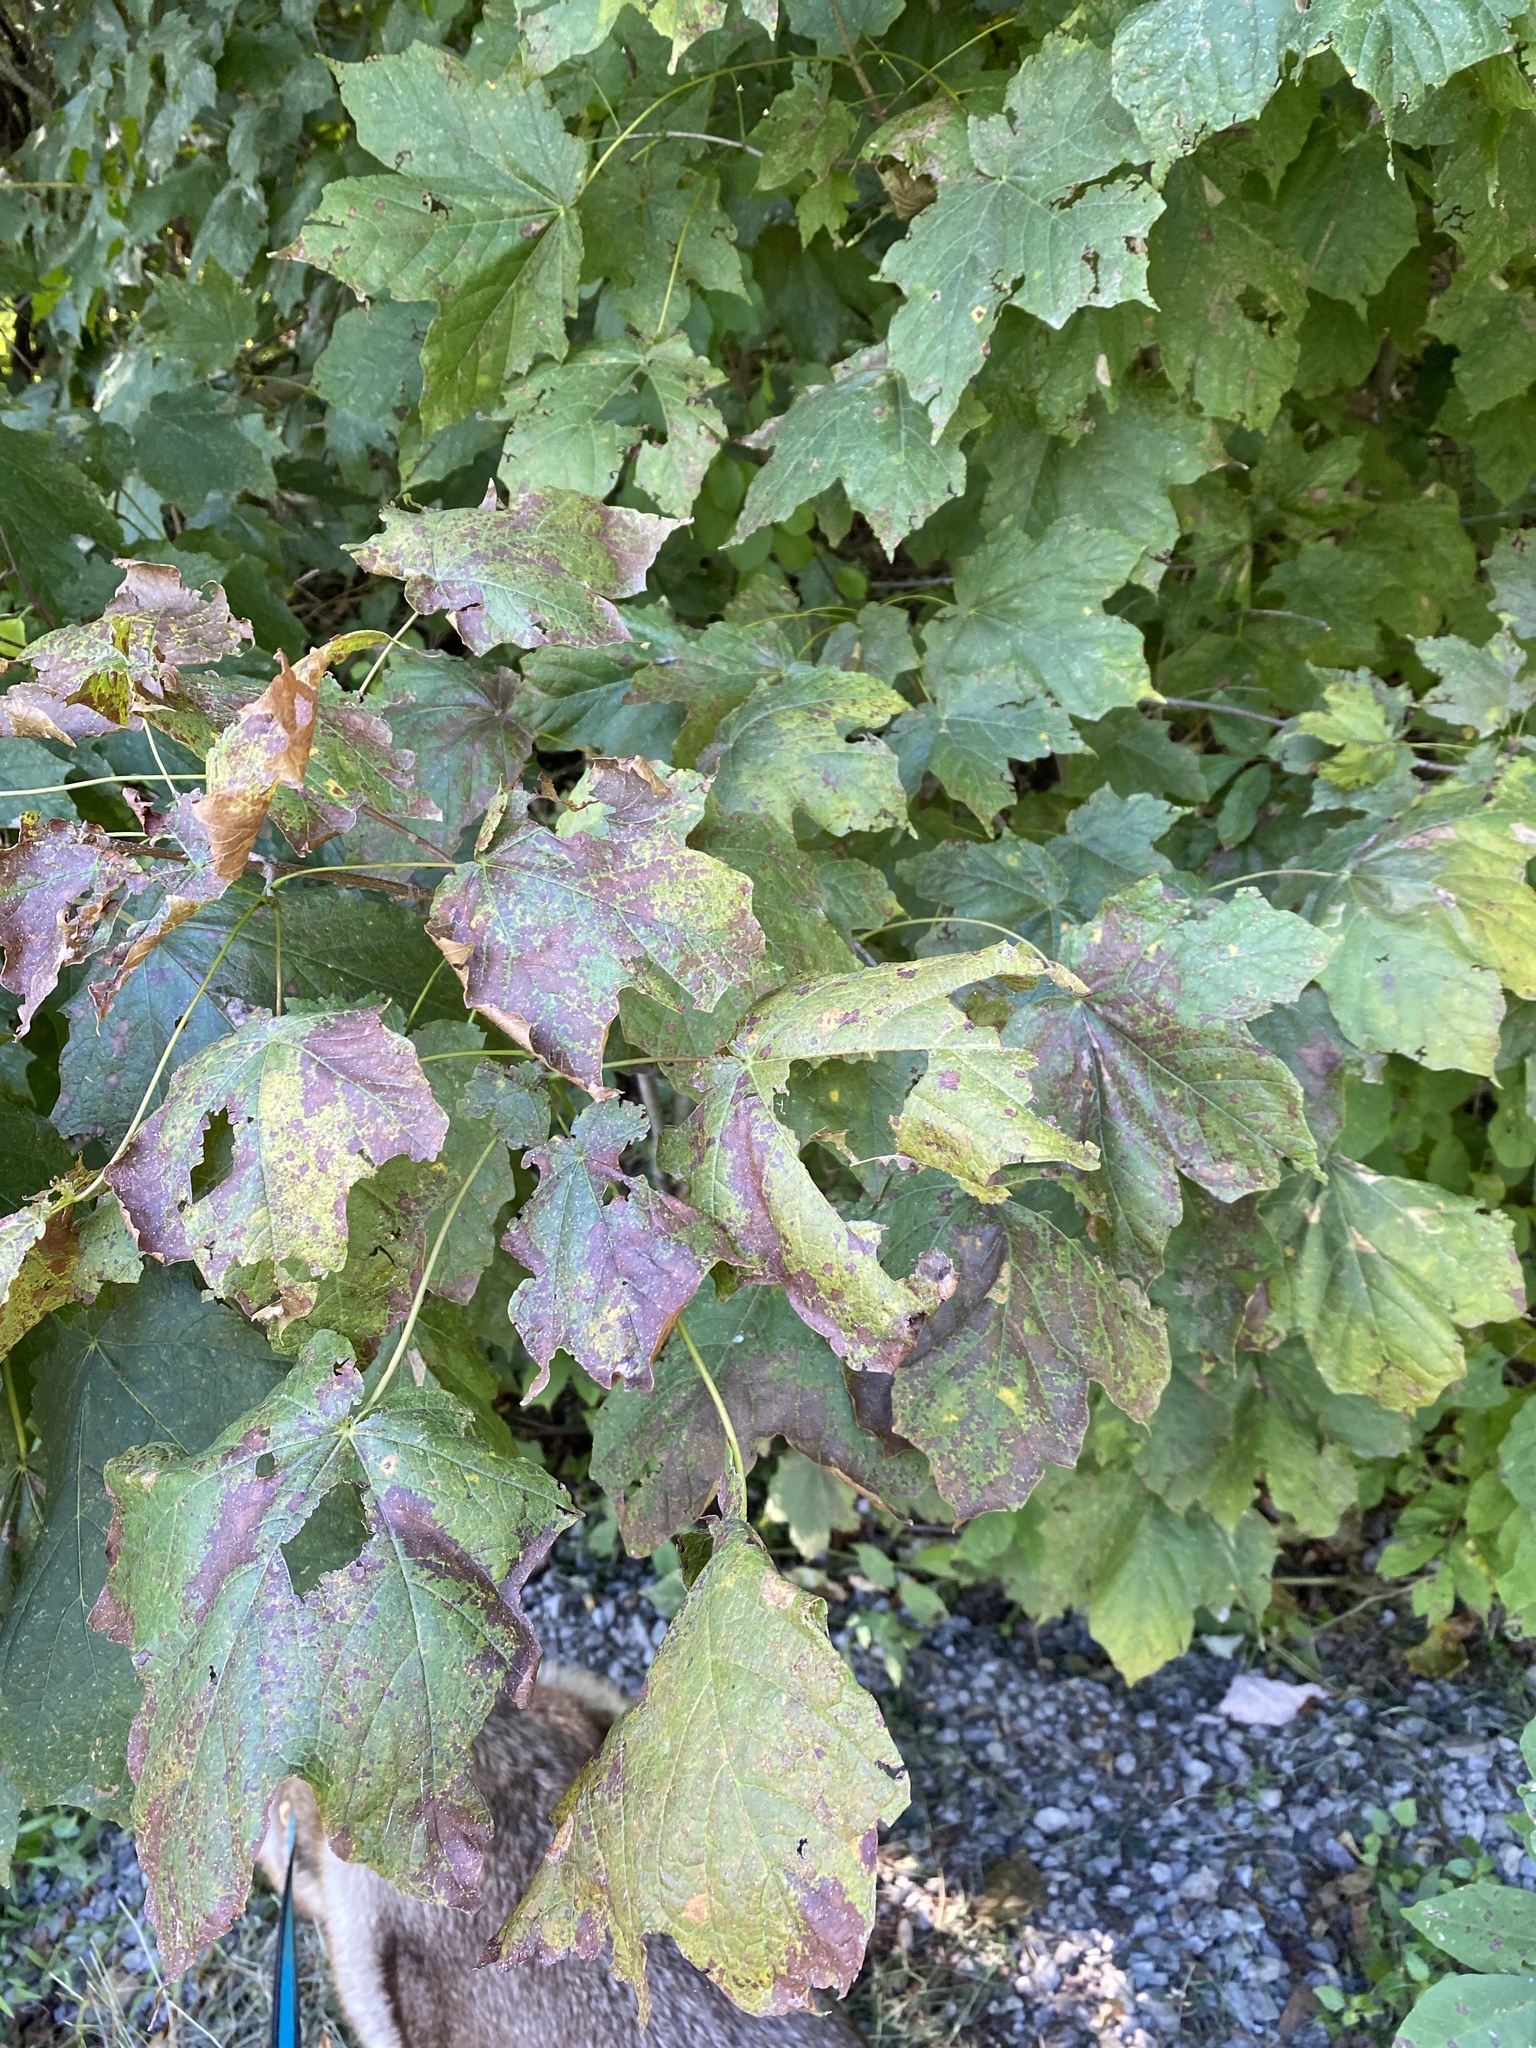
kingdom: Plantae
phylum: Tracheophyta
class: Magnoliopsida
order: Sapindales
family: Sapindaceae
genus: Acer
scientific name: Acer nigrum
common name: Black maple
